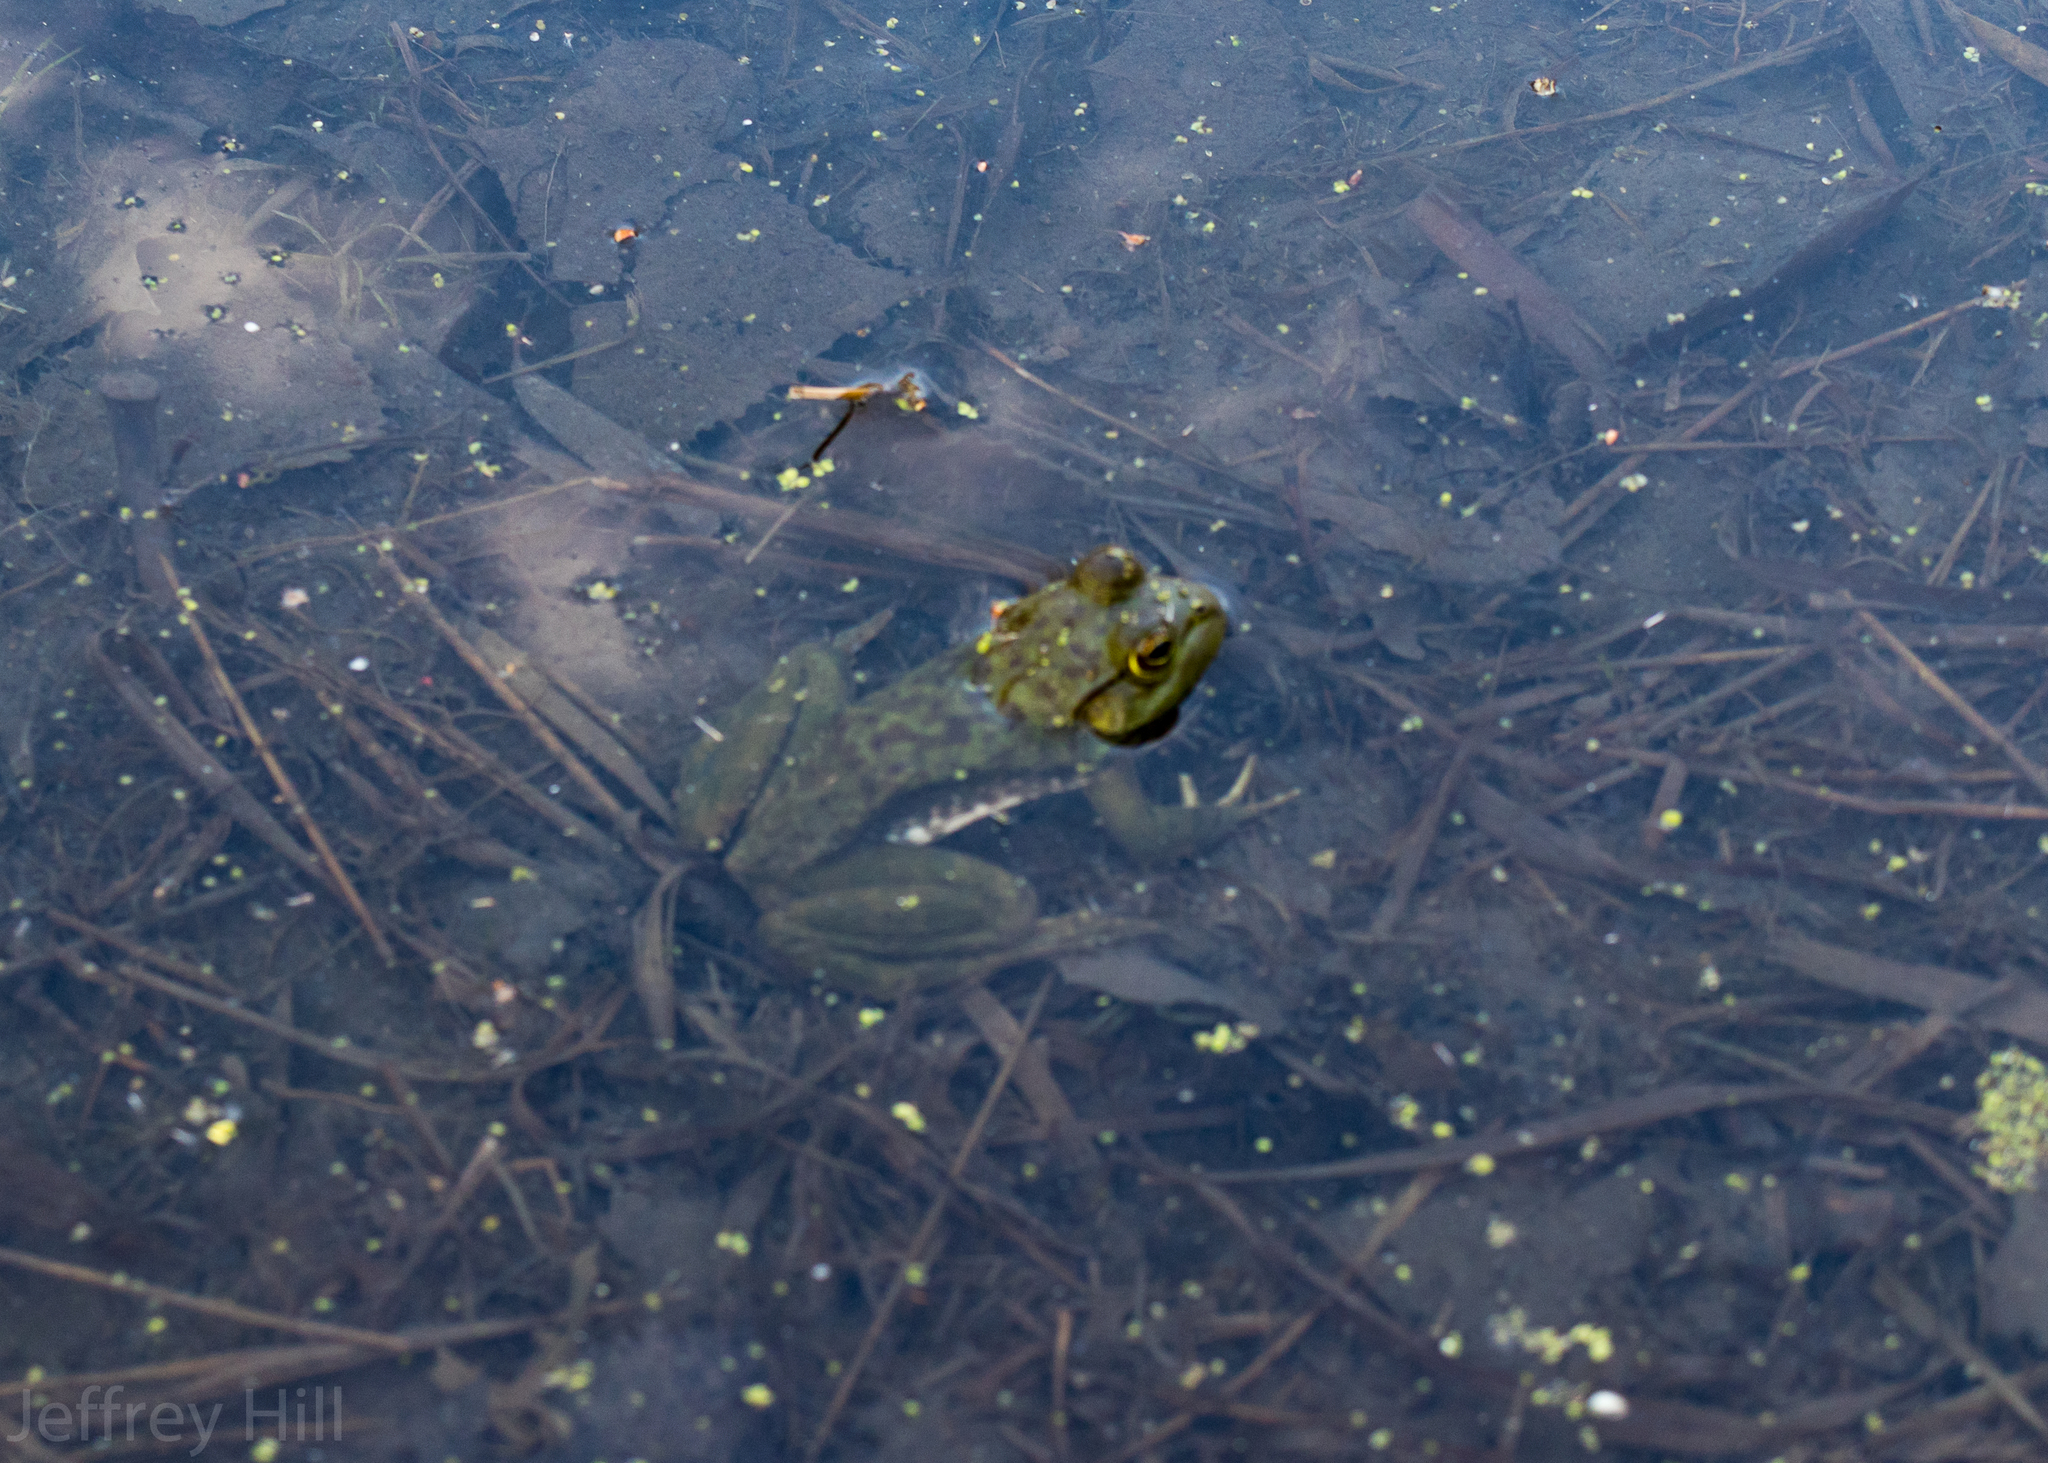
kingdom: Animalia
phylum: Chordata
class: Amphibia
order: Anura
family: Ranidae
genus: Lithobates
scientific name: Lithobates catesbeianus
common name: American bullfrog
